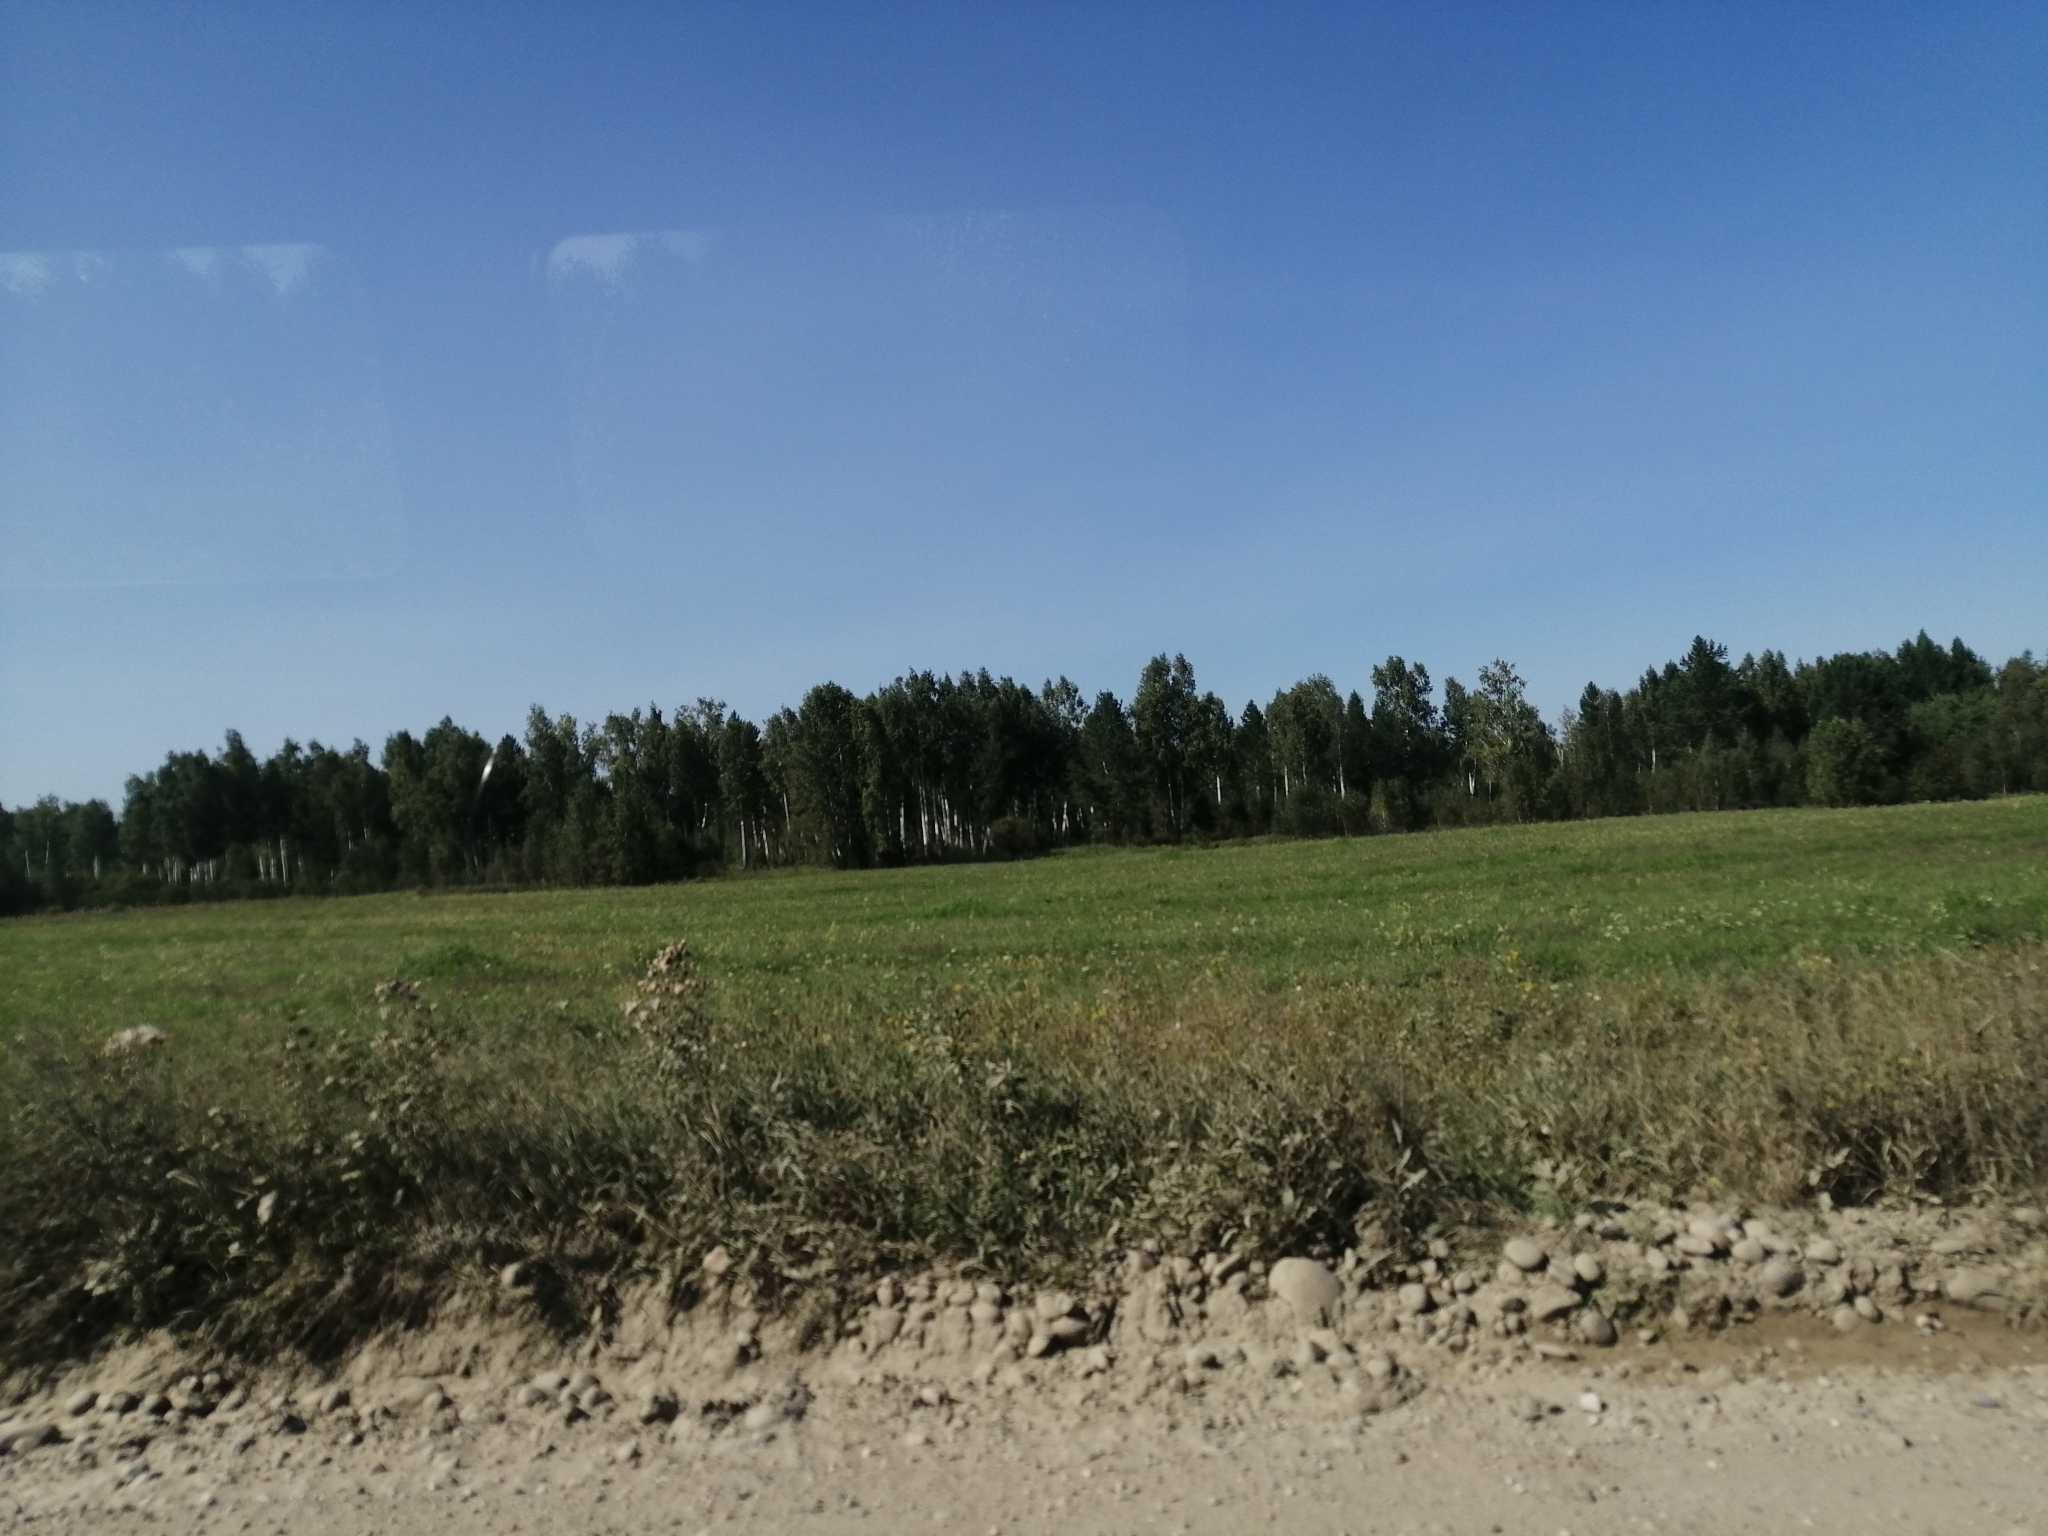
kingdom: Plantae
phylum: Tracheophyta
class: Pinopsida
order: Pinales
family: Pinaceae
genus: Pinus
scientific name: Pinus sylvestris
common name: Scots pine
